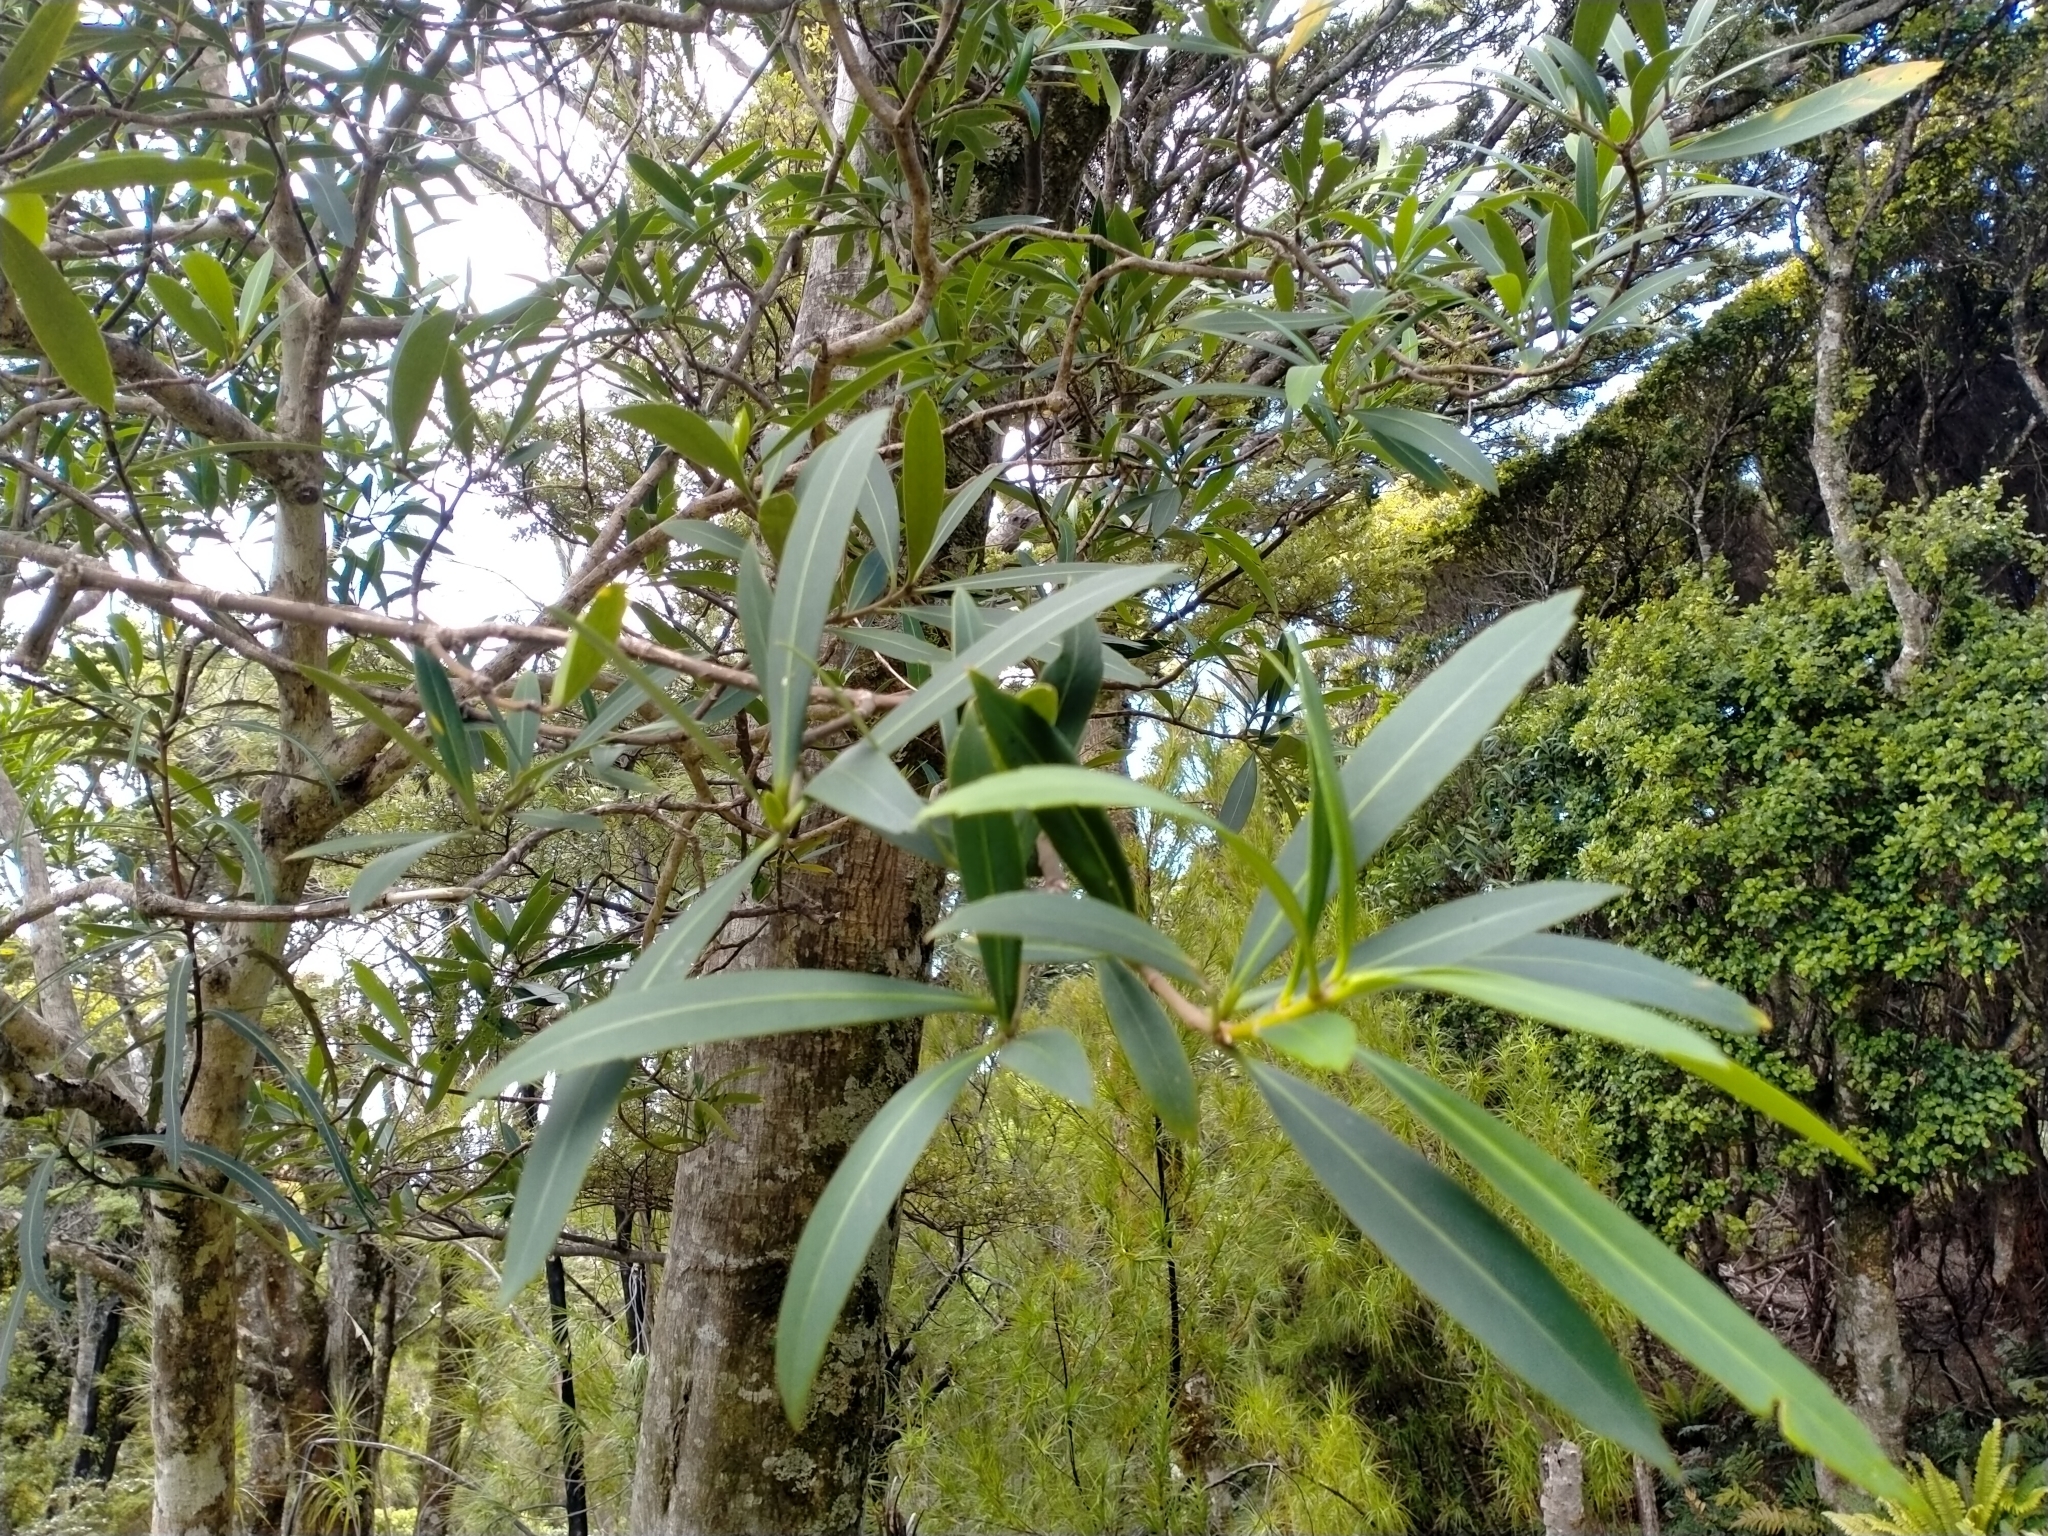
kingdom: Plantae
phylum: Tracheophyta
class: Magnoliopsida
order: Apiales
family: Araliaceae
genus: Pseudopanax
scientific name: Pseudopanax crassifolius
